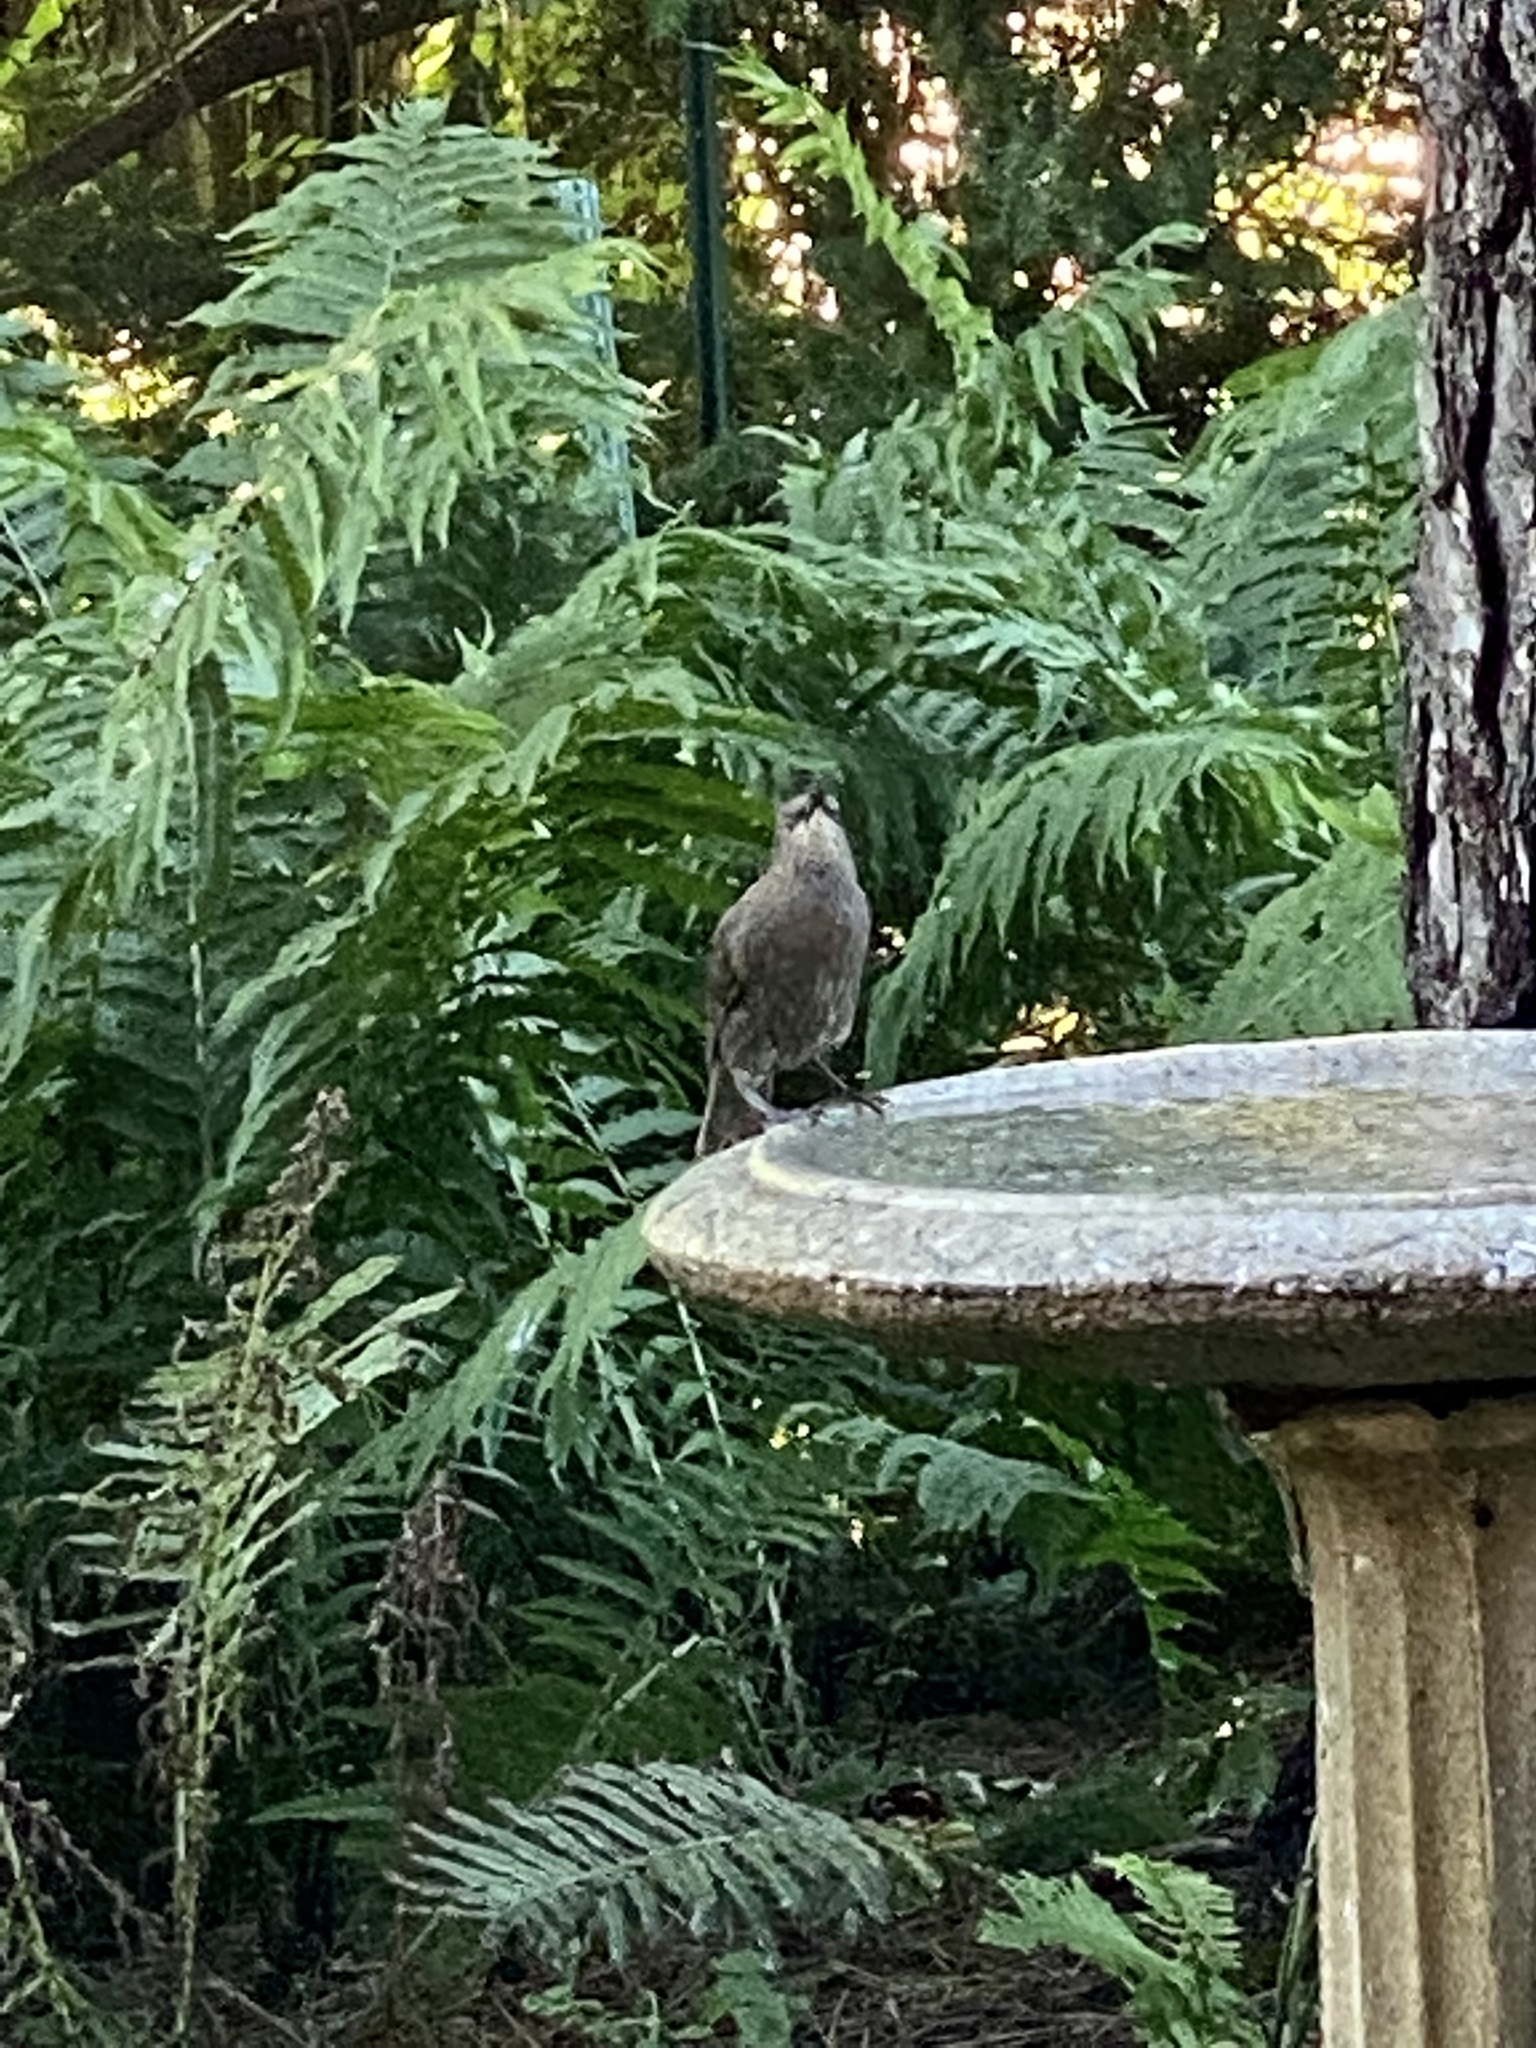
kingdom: Animalia
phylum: Chordata
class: Aves
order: Passeriformes
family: Sturnidae
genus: Sturnus
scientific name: Sturnus vulgaris
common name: Common starling
